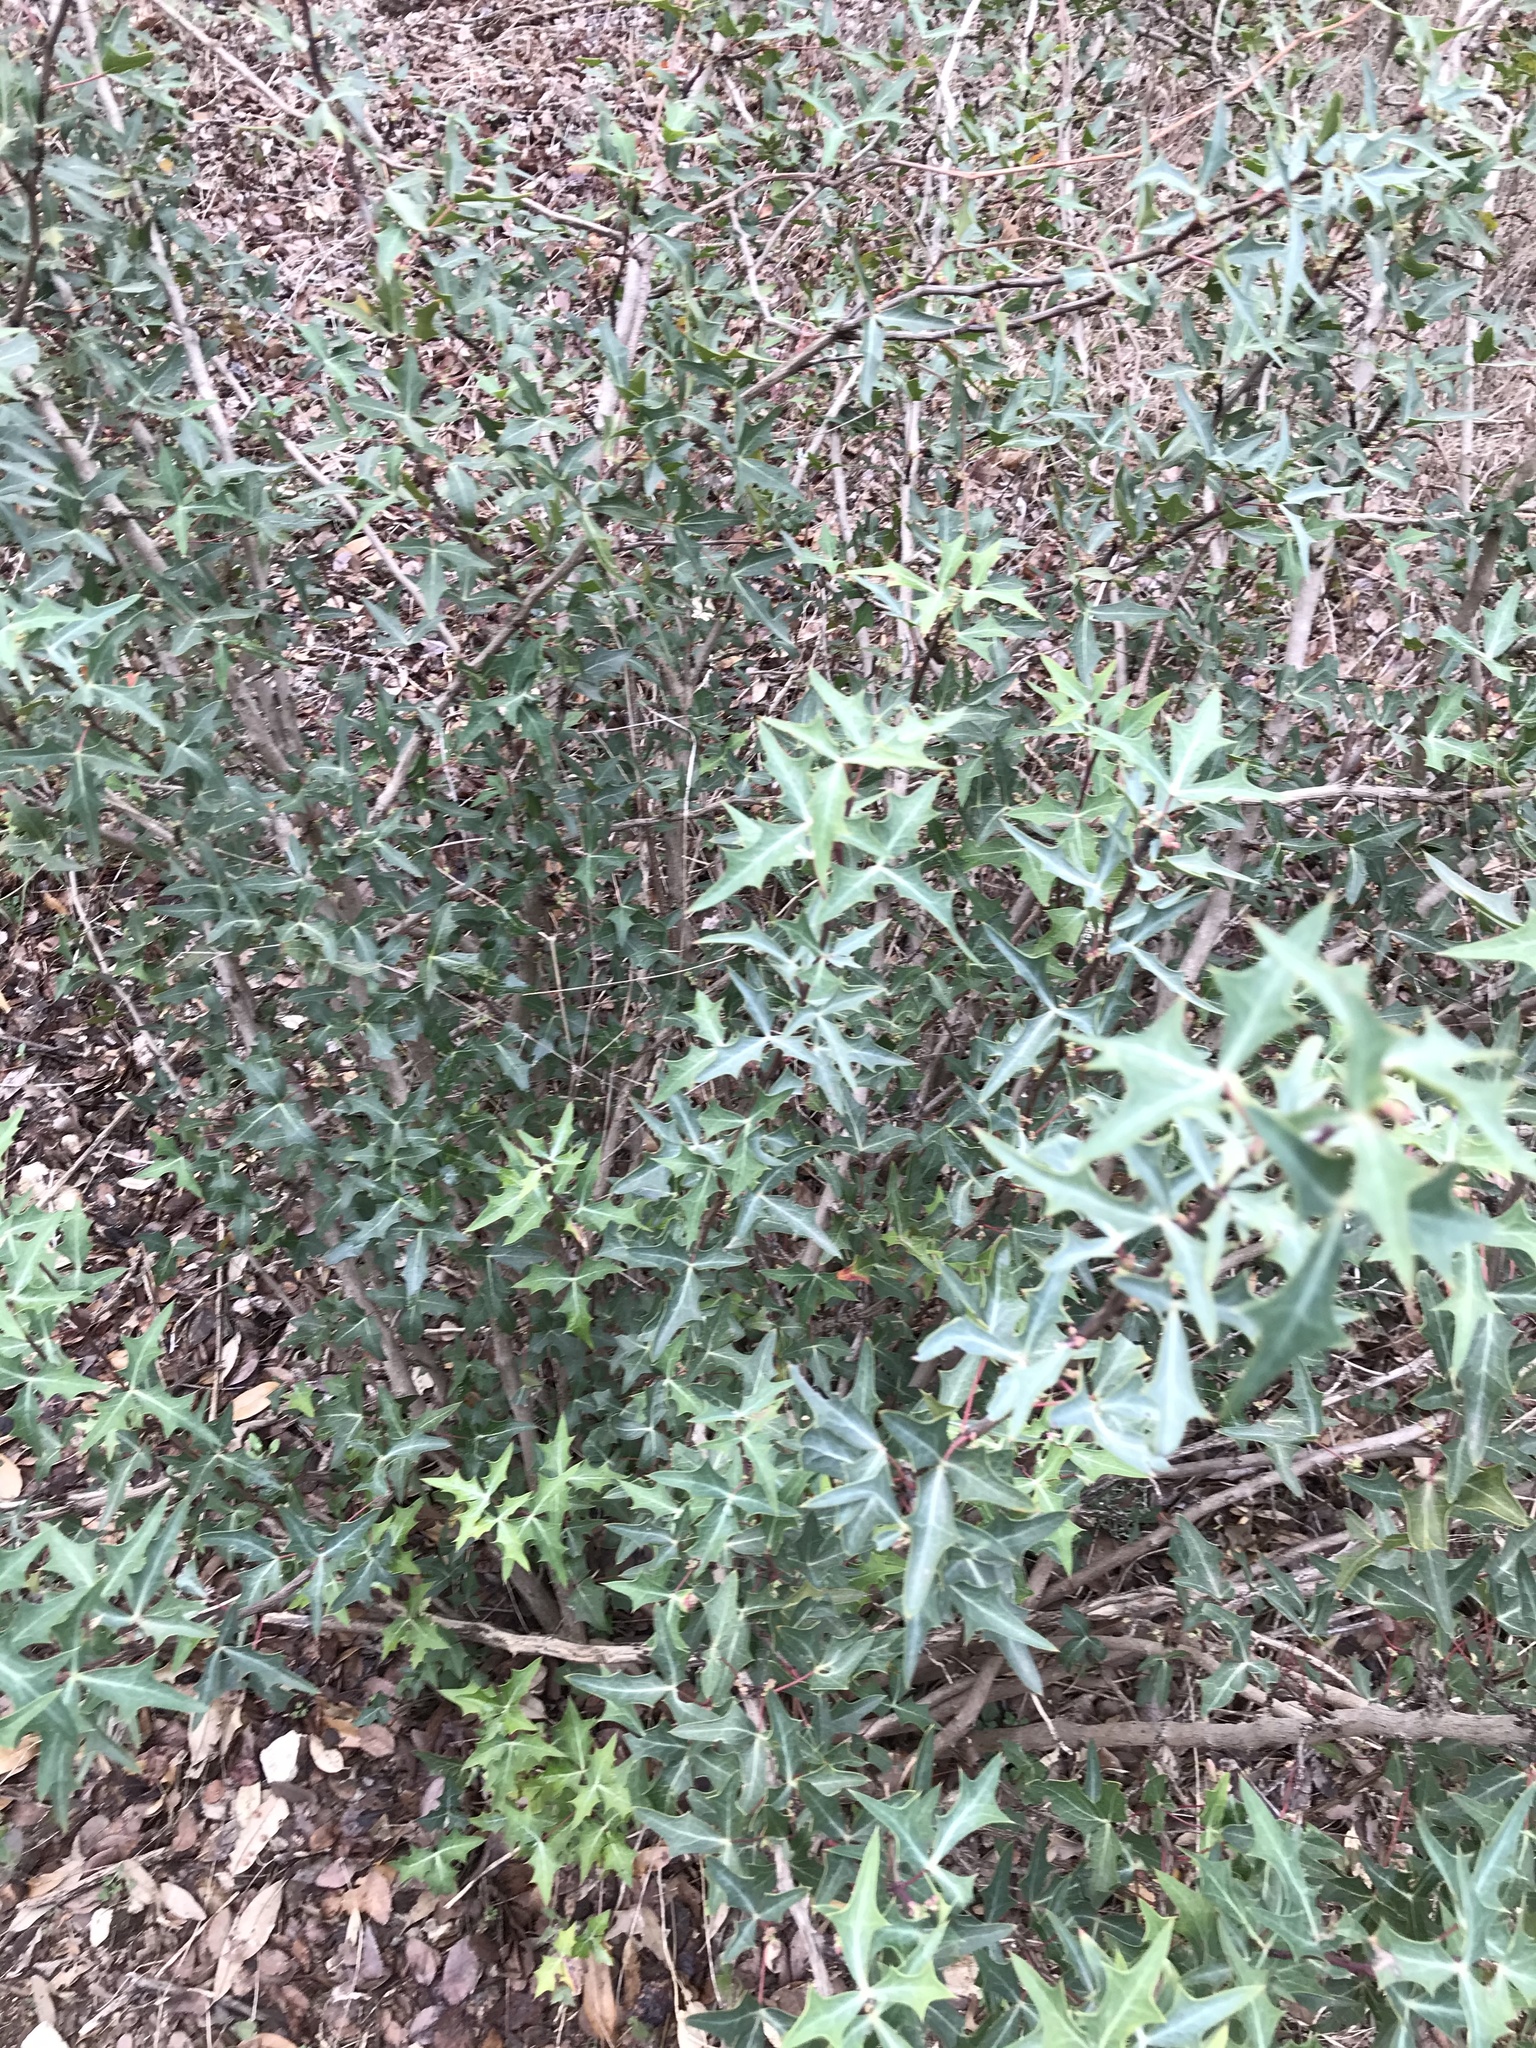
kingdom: Plantae
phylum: Tracheophyta
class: Magnoliopsida
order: Ranunculales
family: Berberidaceae
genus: Alloberberis
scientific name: Alloberberis trifoliolata
